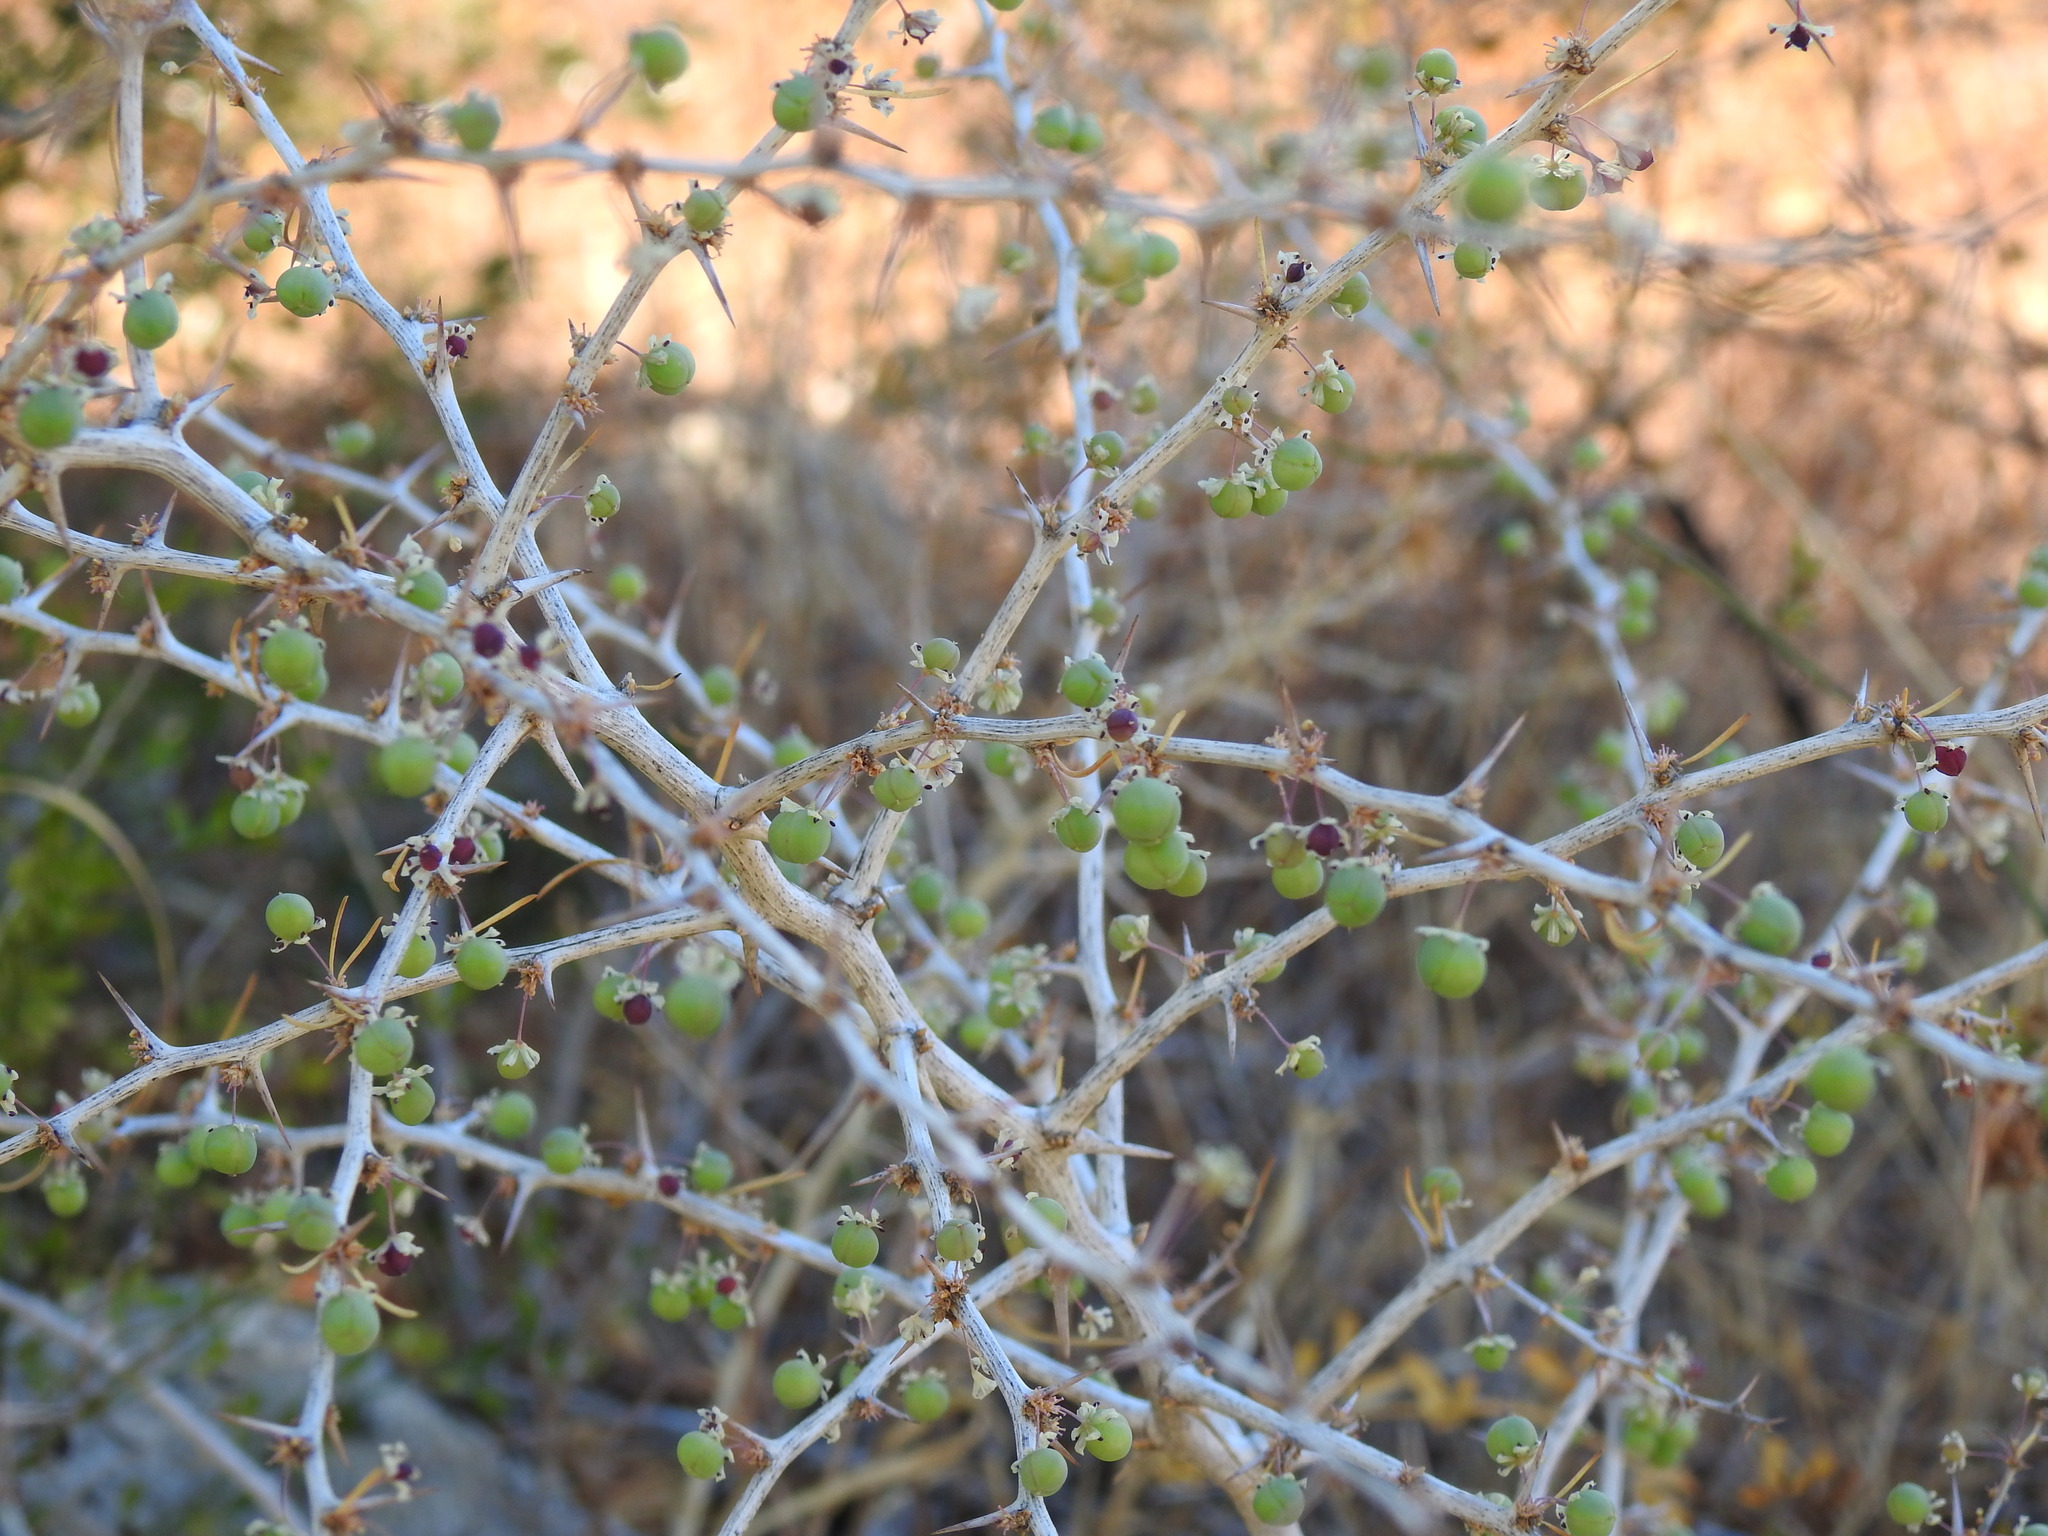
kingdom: Plantae
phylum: Tracheophyta
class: Liliopsida
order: Asparagales
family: Asparagaceae
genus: Asparagus
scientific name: Asparagus albus
